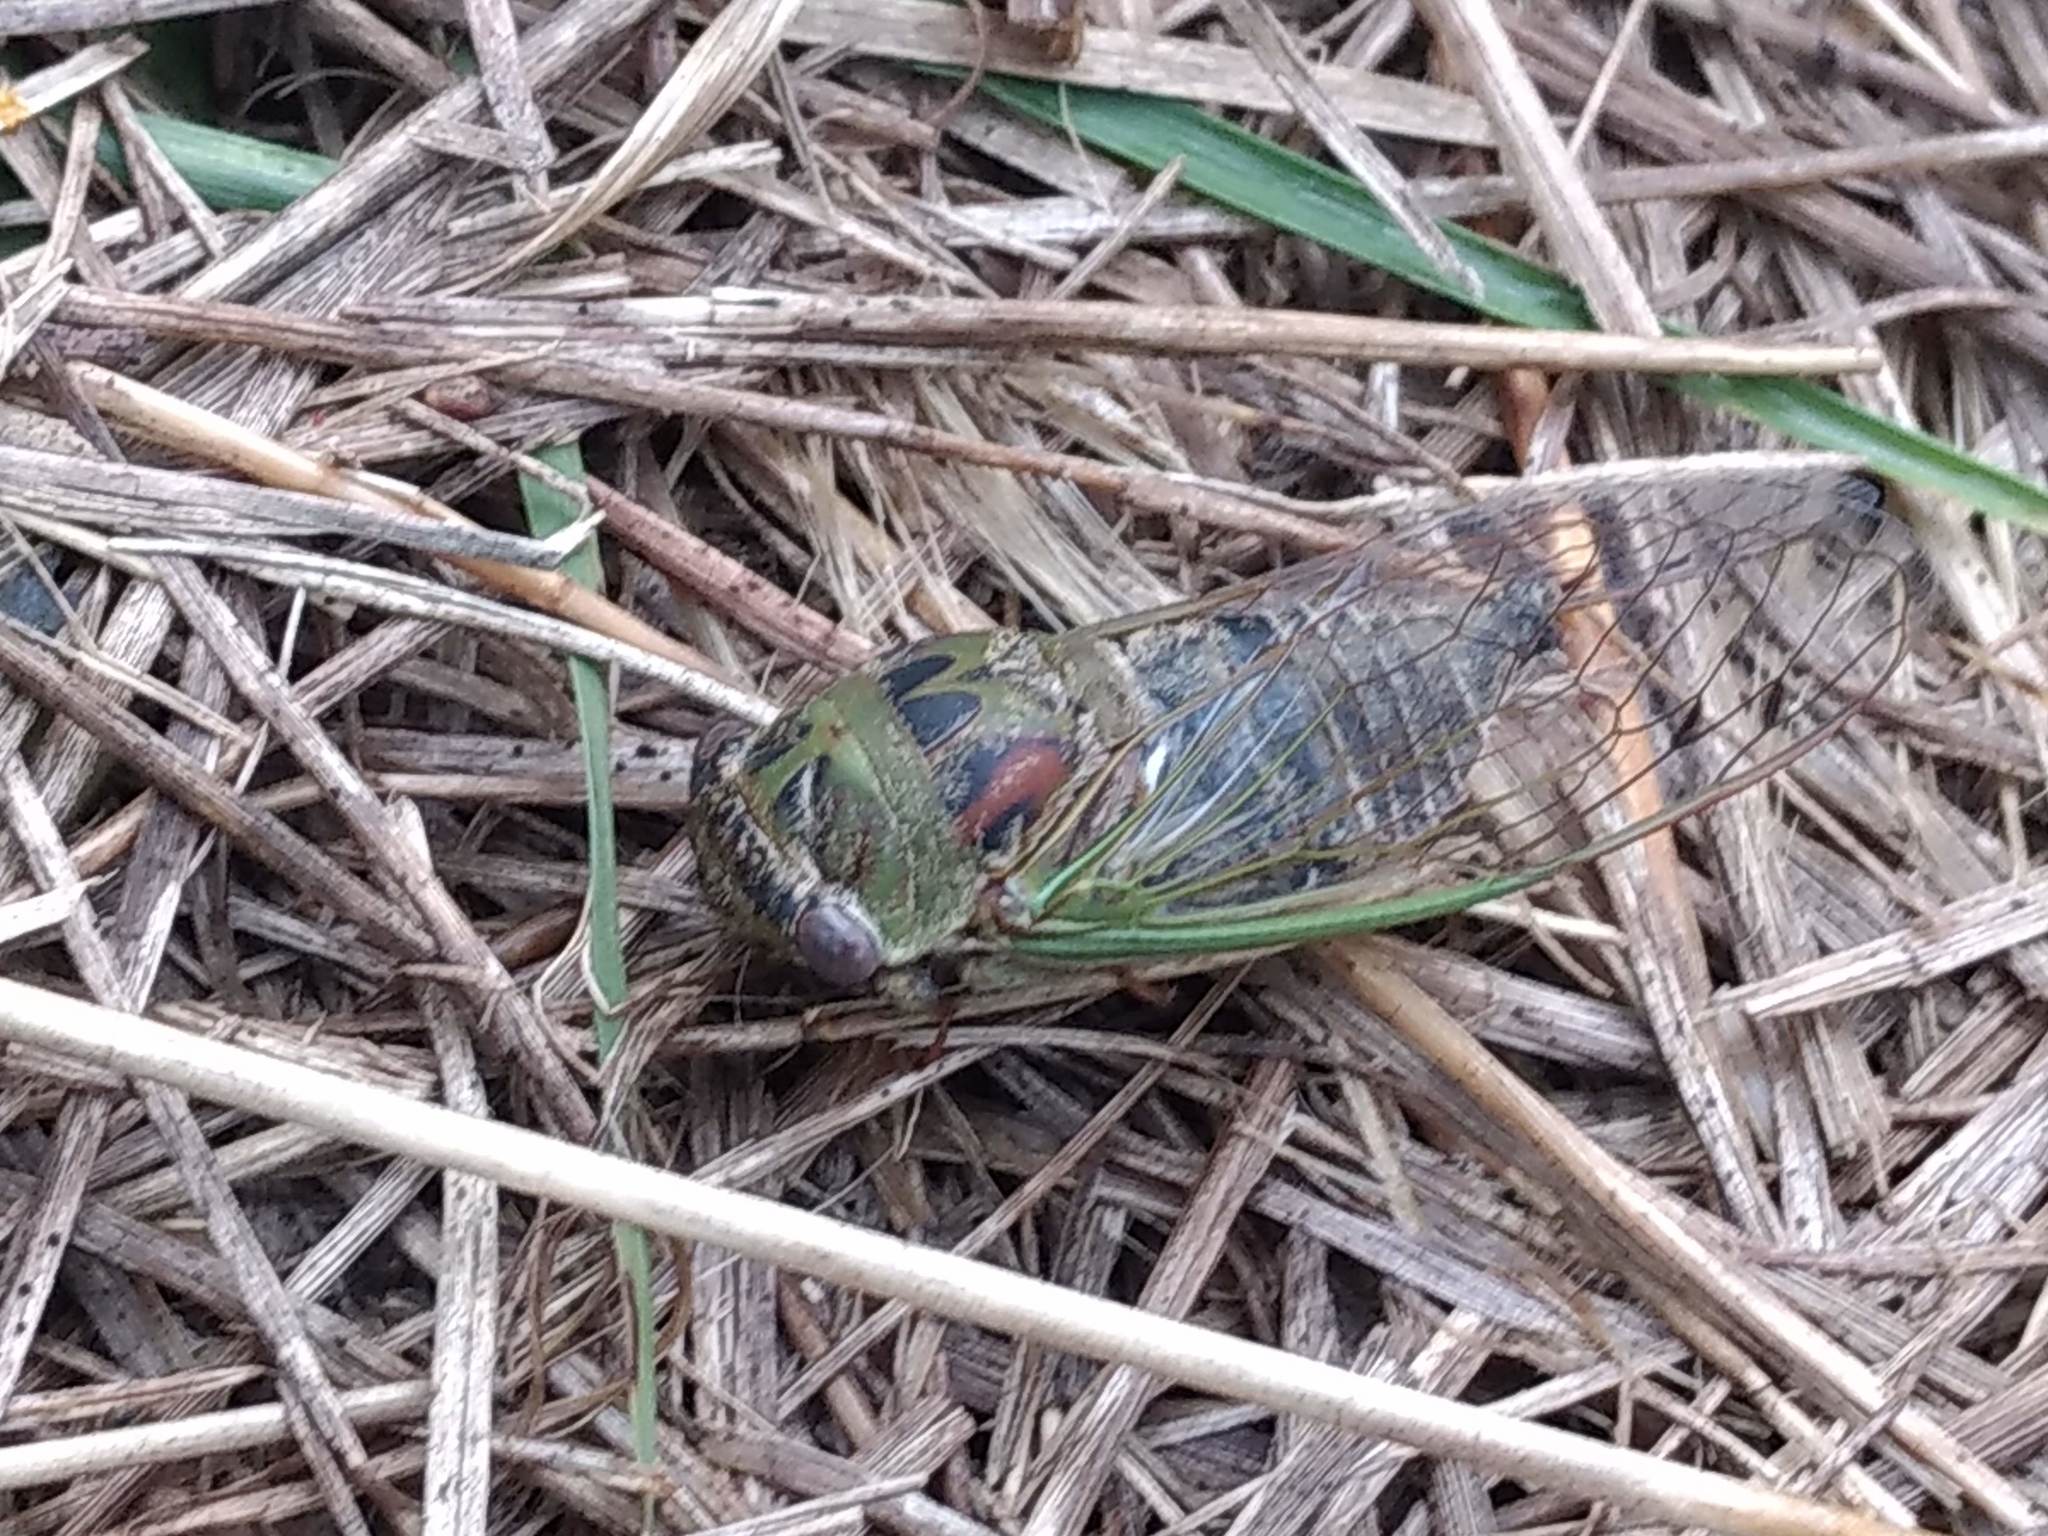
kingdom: Animalia
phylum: Arthropoda
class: Insecta
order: Hemiptera
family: Cicadidae
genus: Neotibicen
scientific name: Neotibicen aurifer
